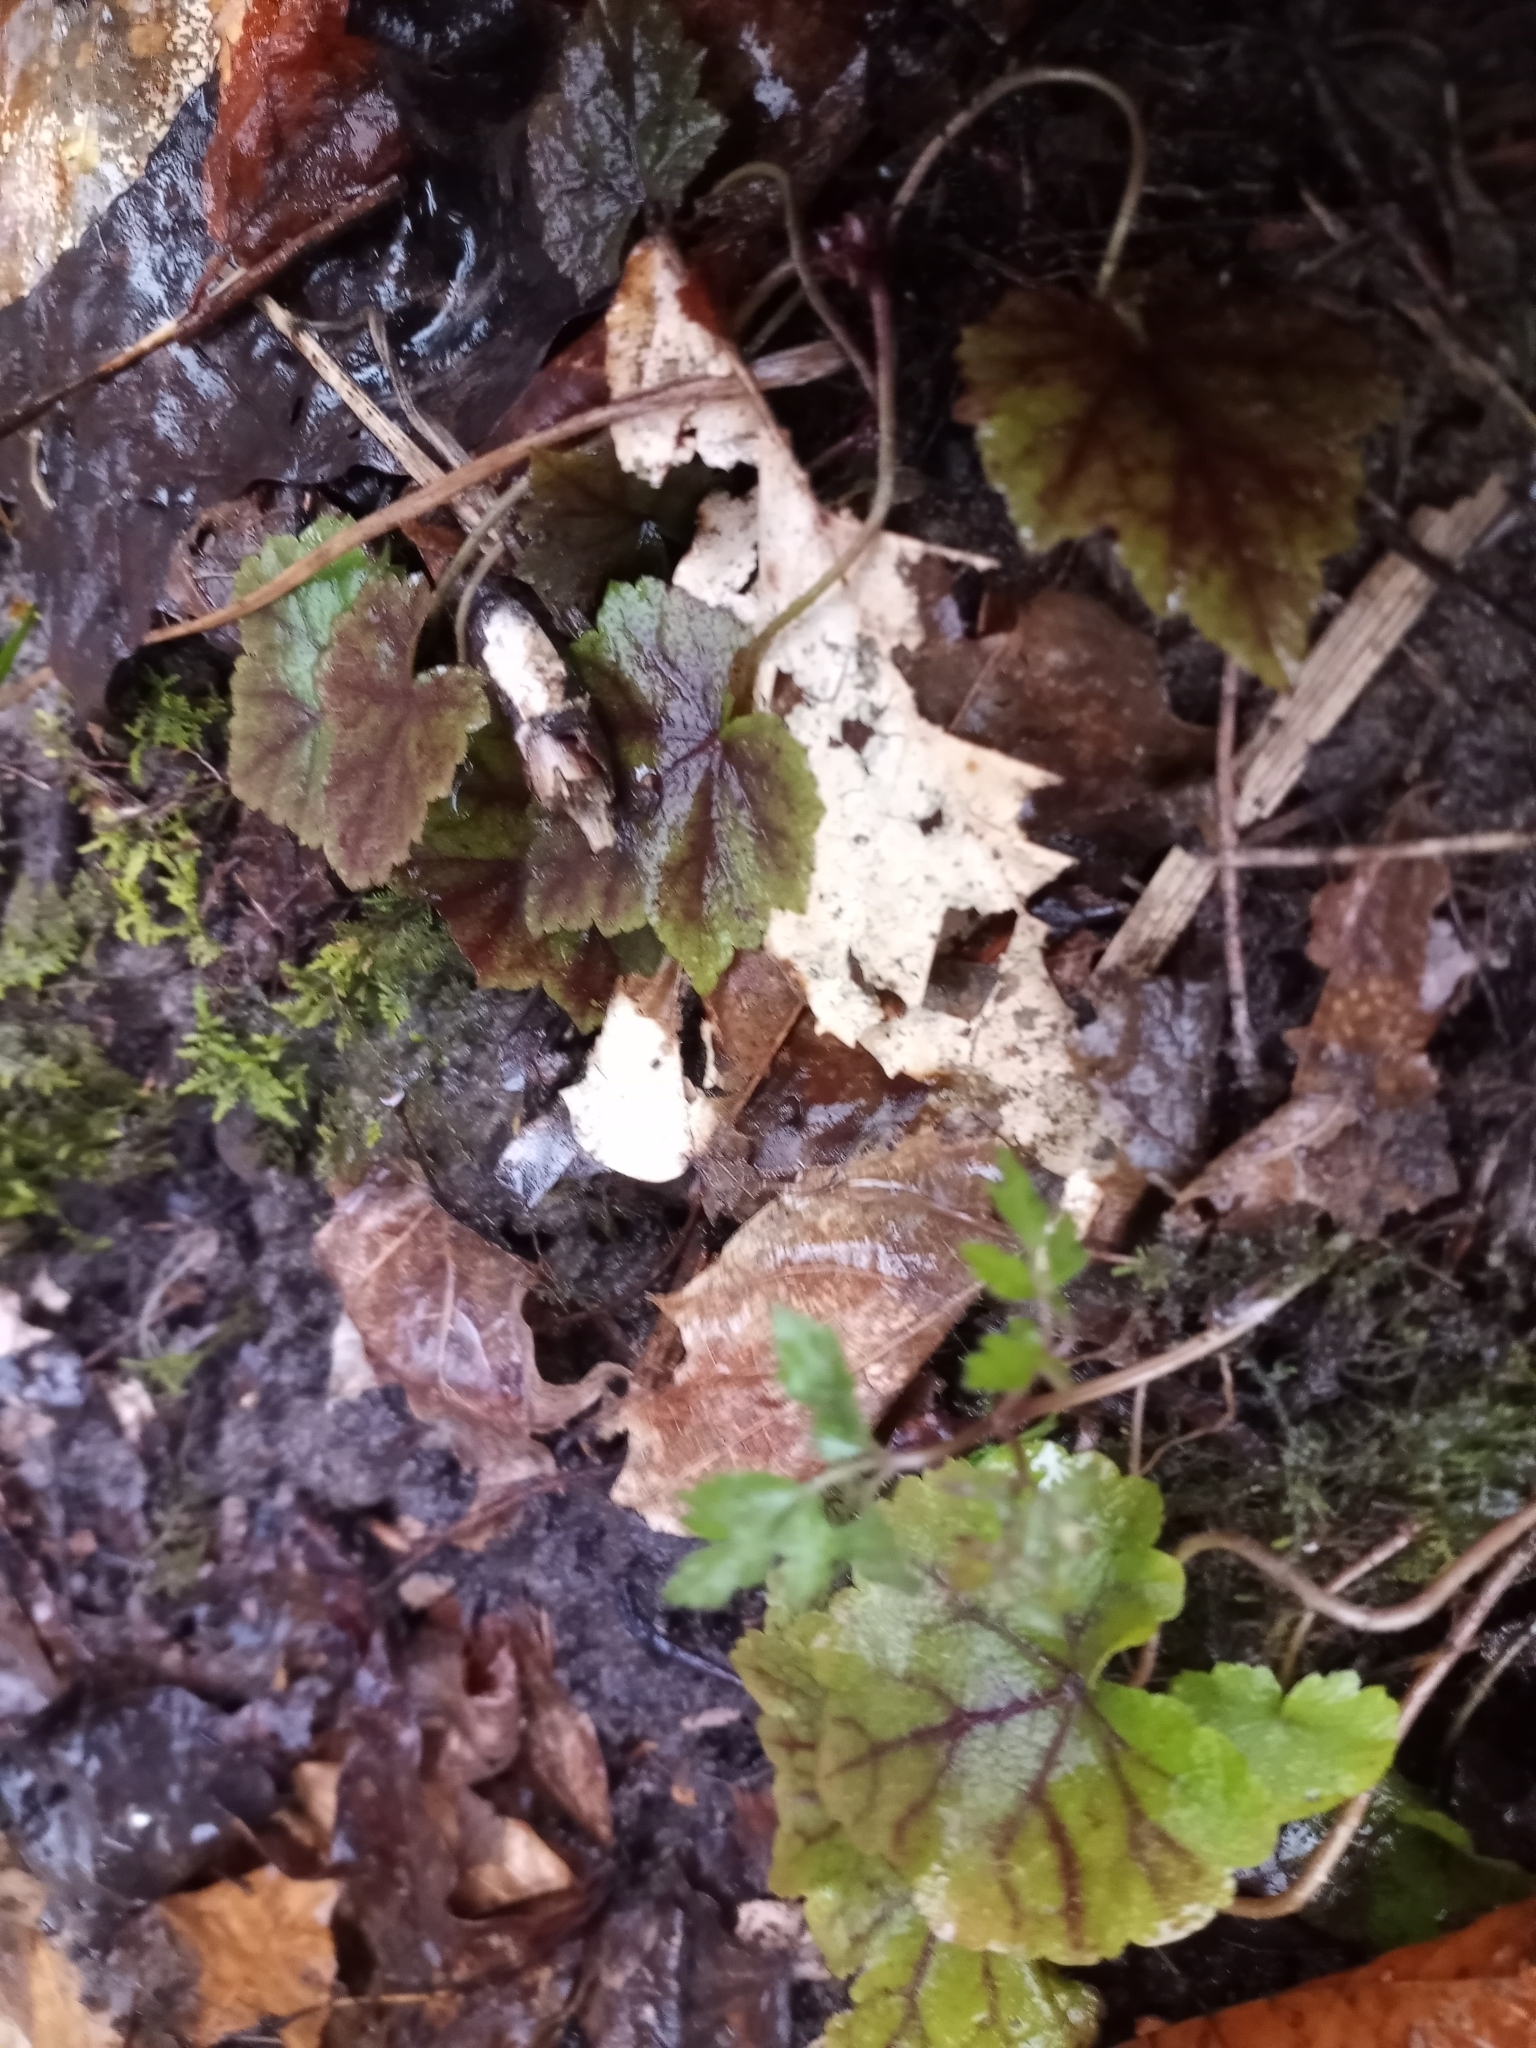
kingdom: Plantae
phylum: Tracheophyta
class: Magnoliopsida
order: Saxifragales
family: Saxifragaceae
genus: Tiarella
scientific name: Tiarella stolonifera
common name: Stoloniferous foamflower
